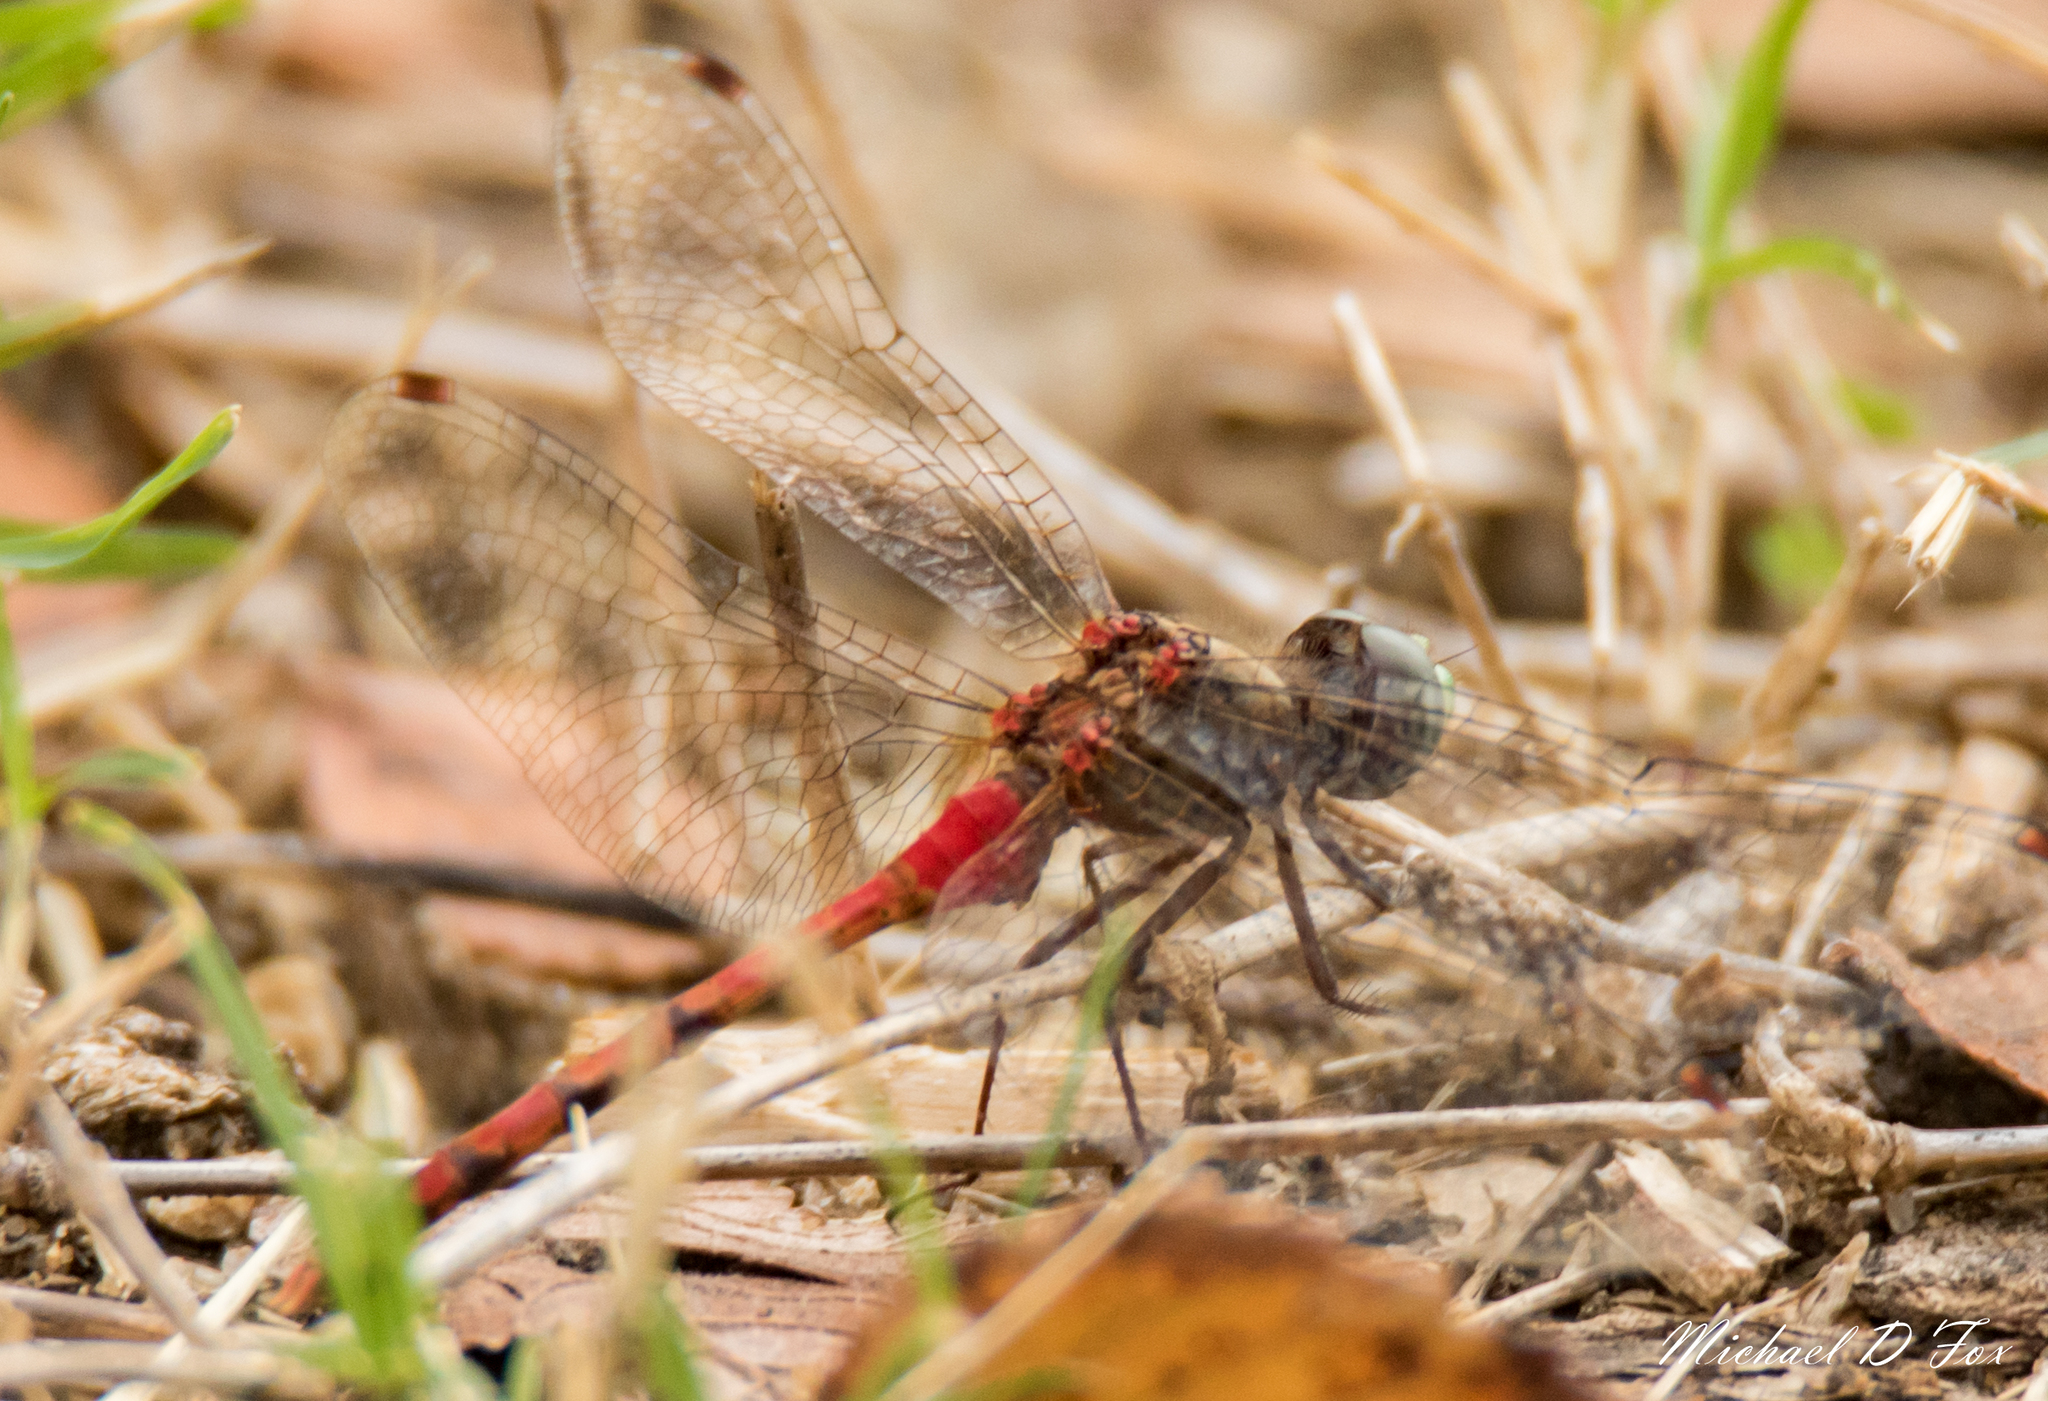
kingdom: Animalia
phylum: Arthropoda
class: Insecta
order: Odonata
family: Libellulidae
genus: Sympetrum
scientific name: Sympetrum ambiguum
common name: Blue-faced meadowhawk
